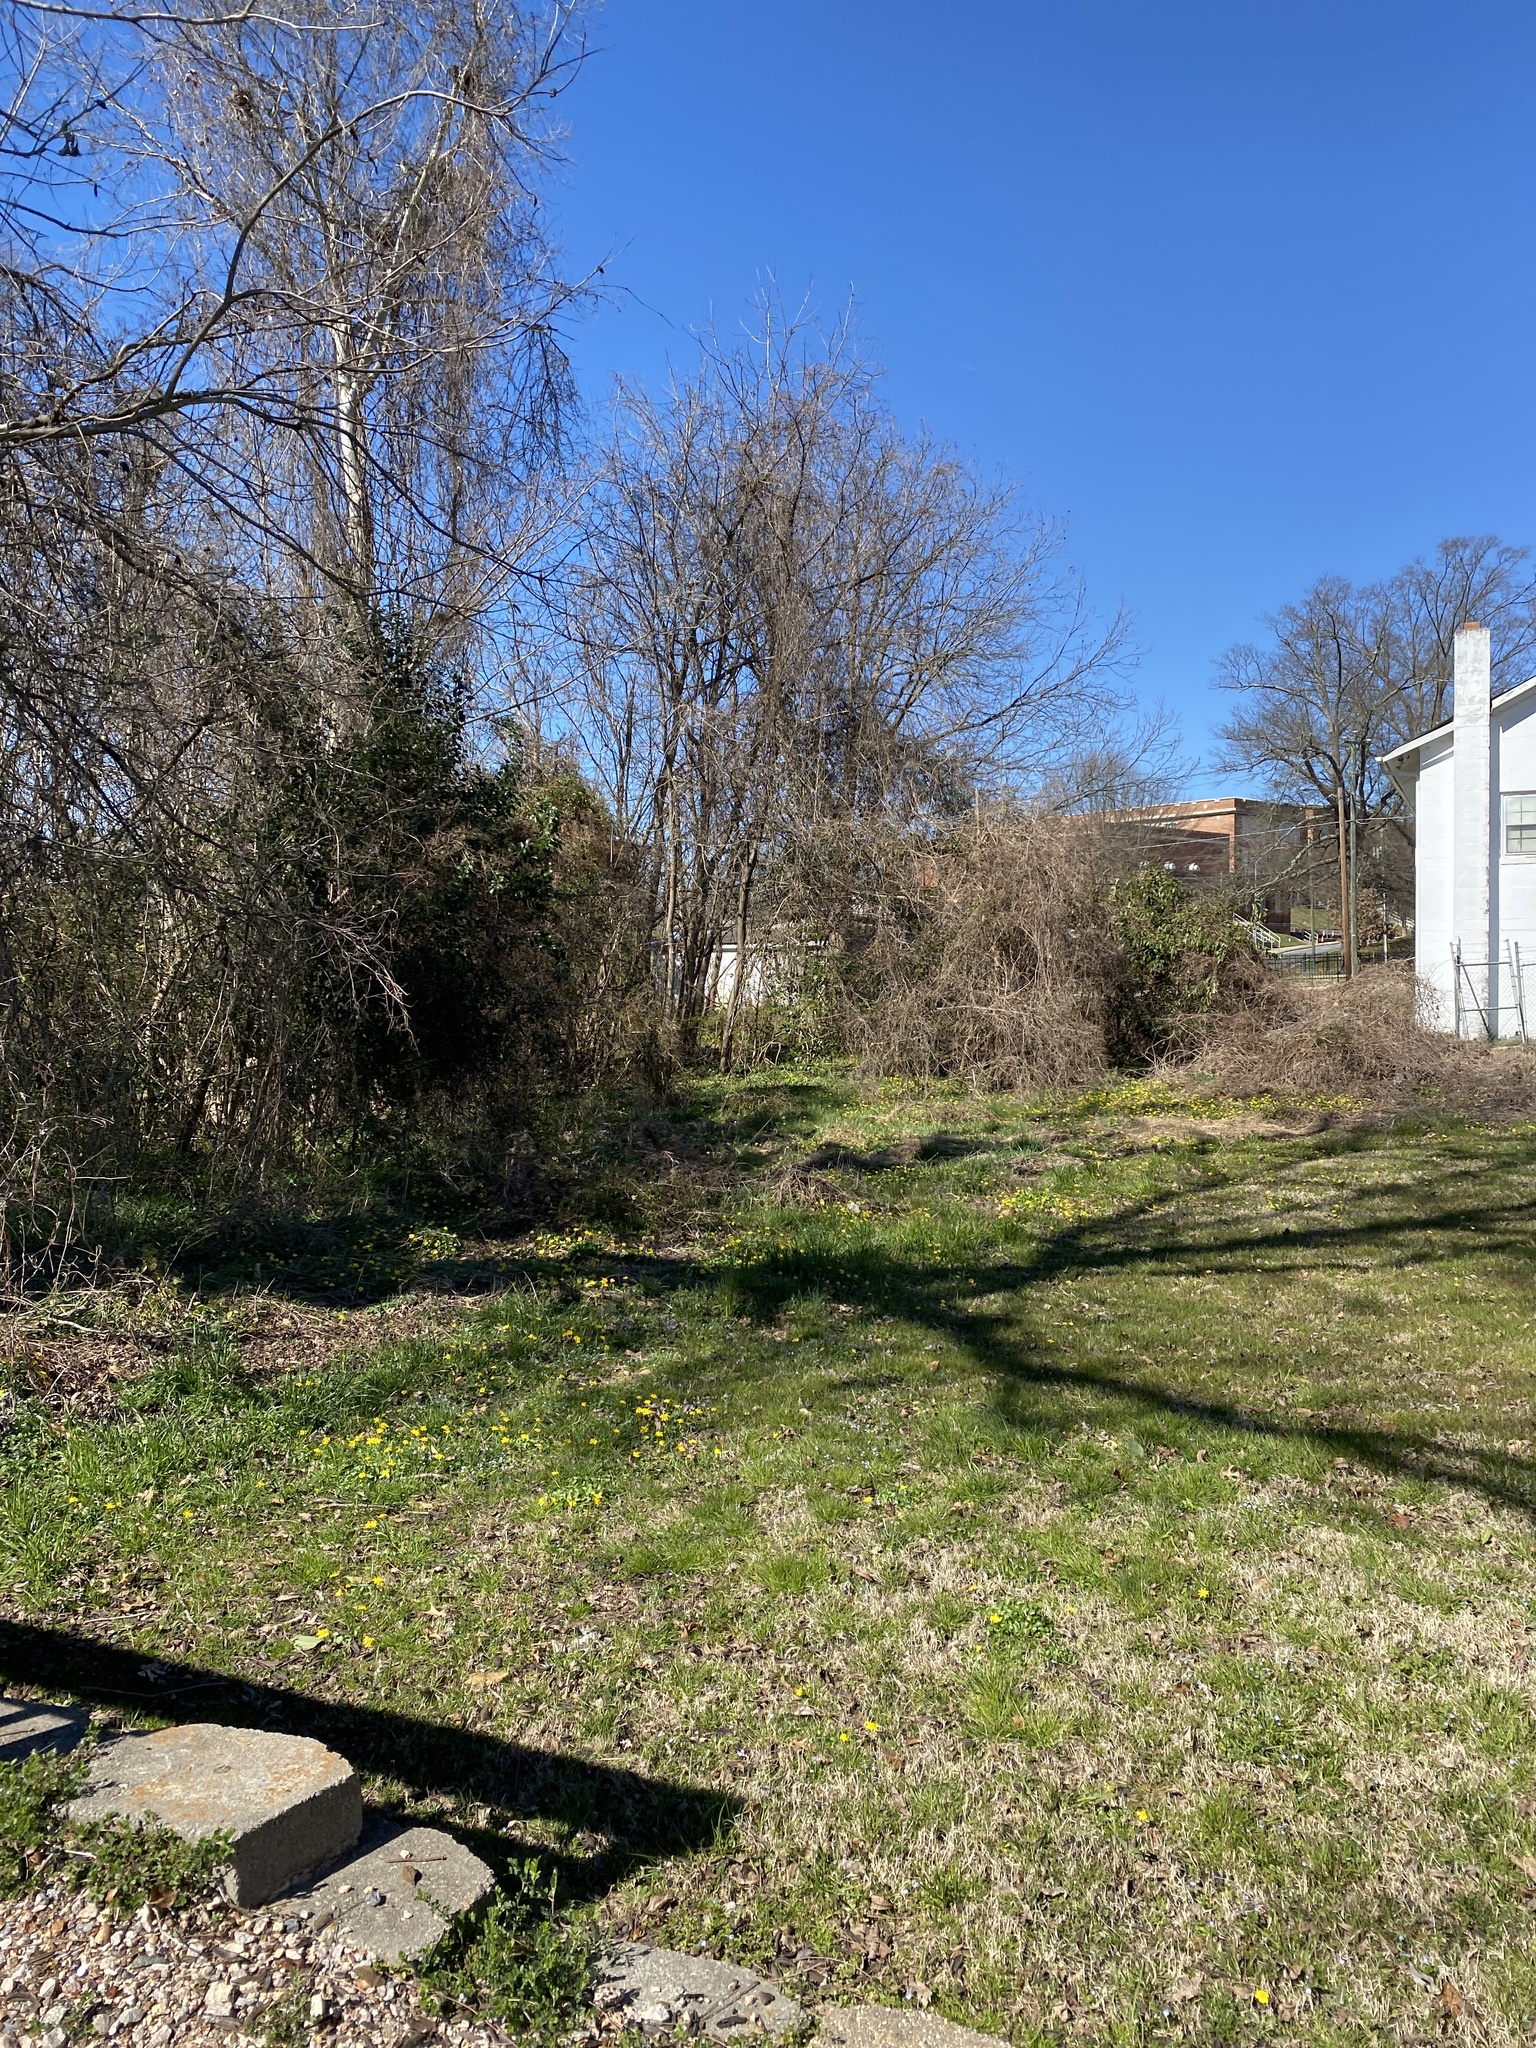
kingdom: Plantae
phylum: Tracheophyta
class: Magnoliopsida
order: Ranunculales
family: Ranunculaceae
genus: Ficaria
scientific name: Ficaria verna
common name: Lesser celandine
